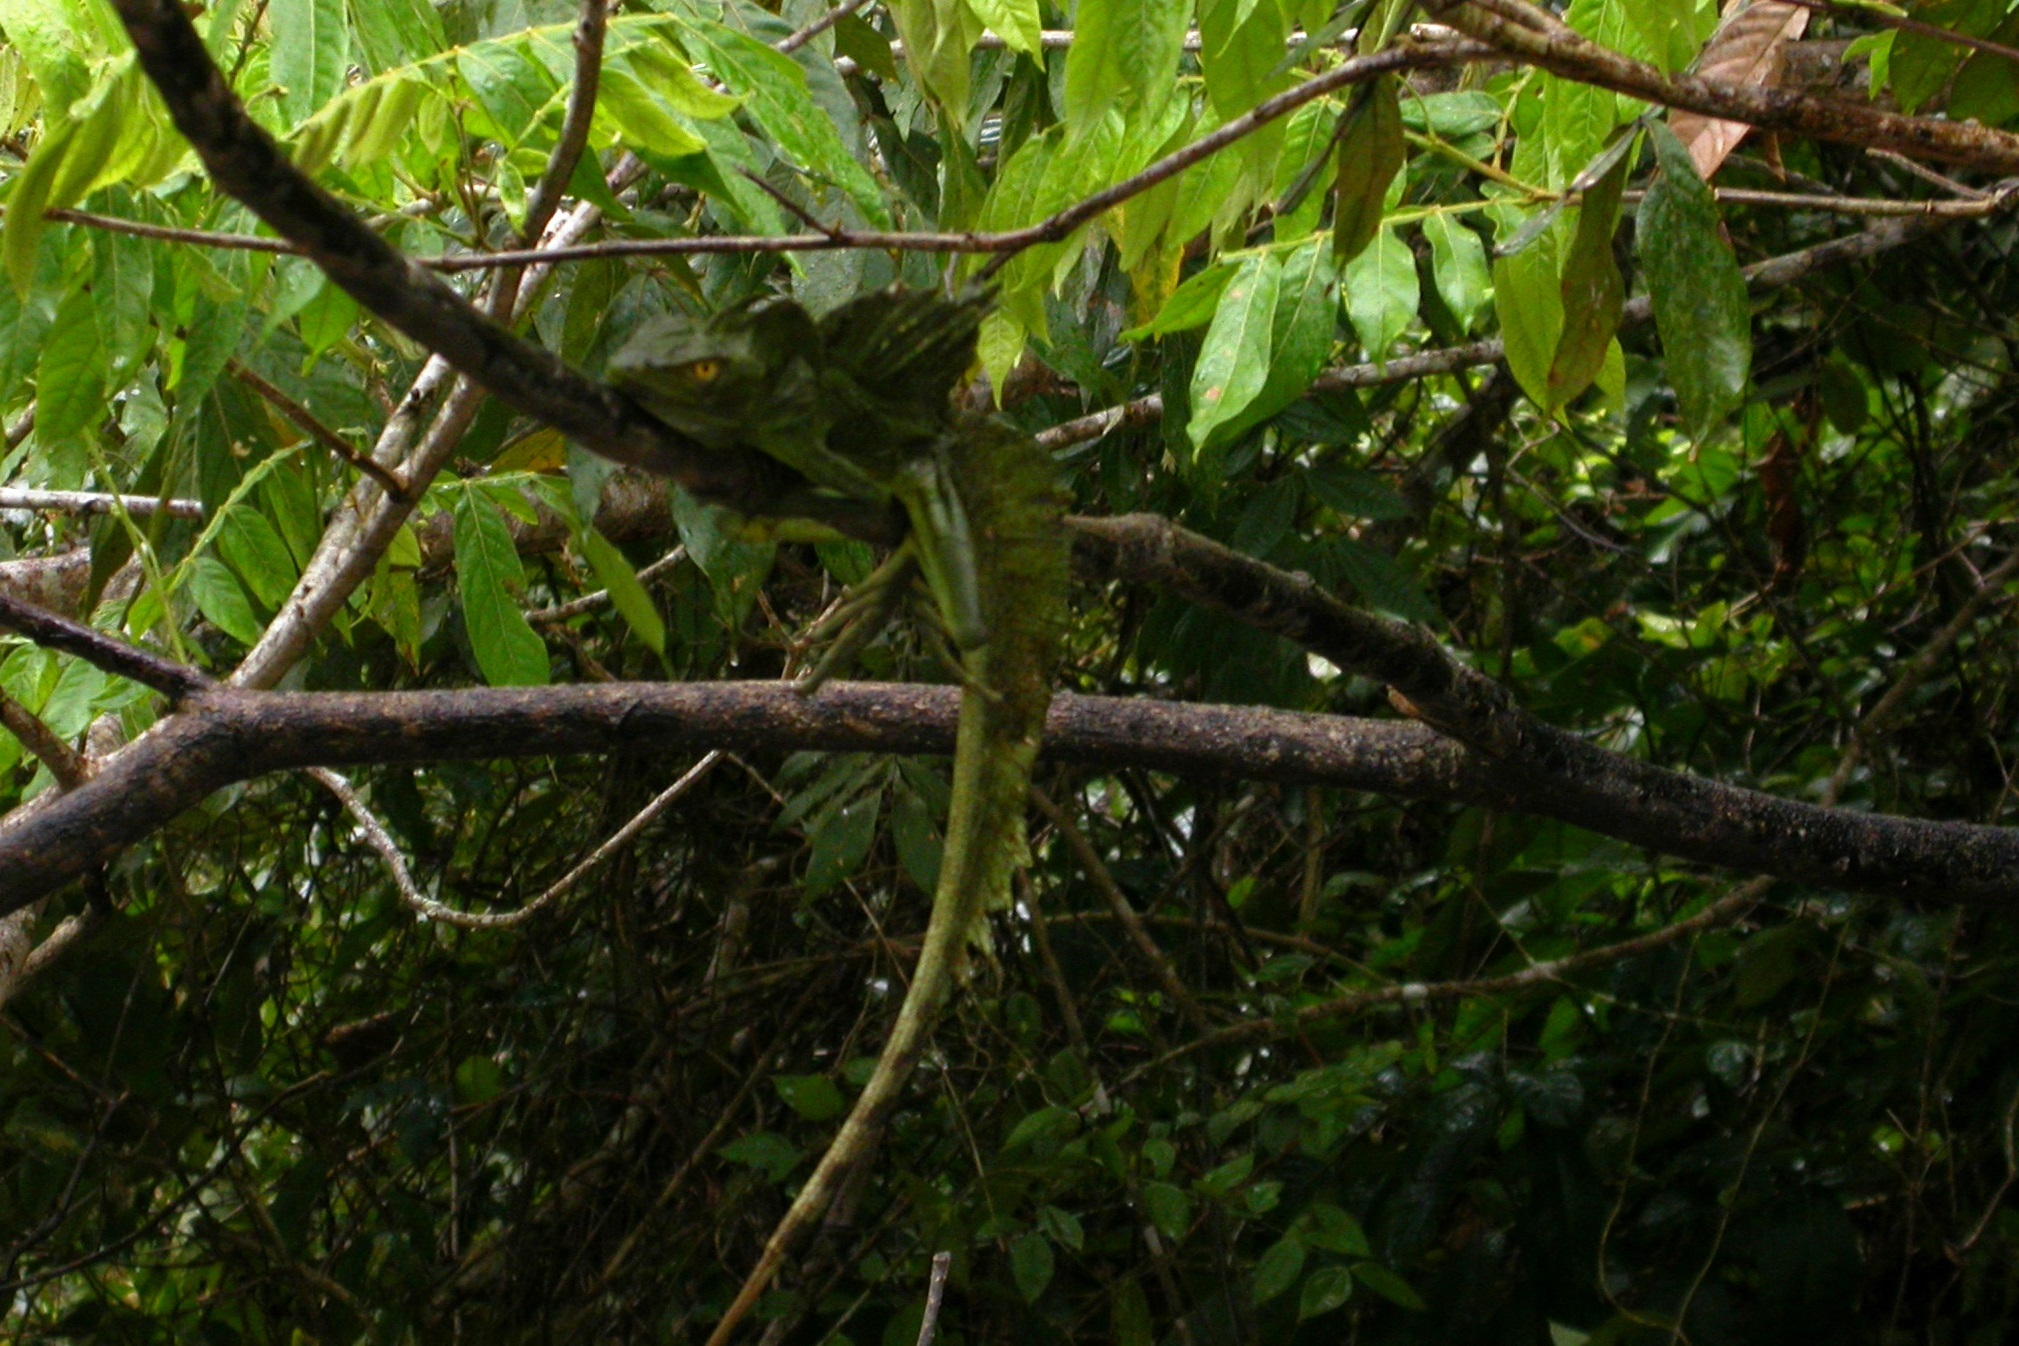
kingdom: Animalia
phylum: Chordata
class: Squamata
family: Corytophanidae
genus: Basiliscus
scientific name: Basiliscus plumifrons
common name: Green basilisk
